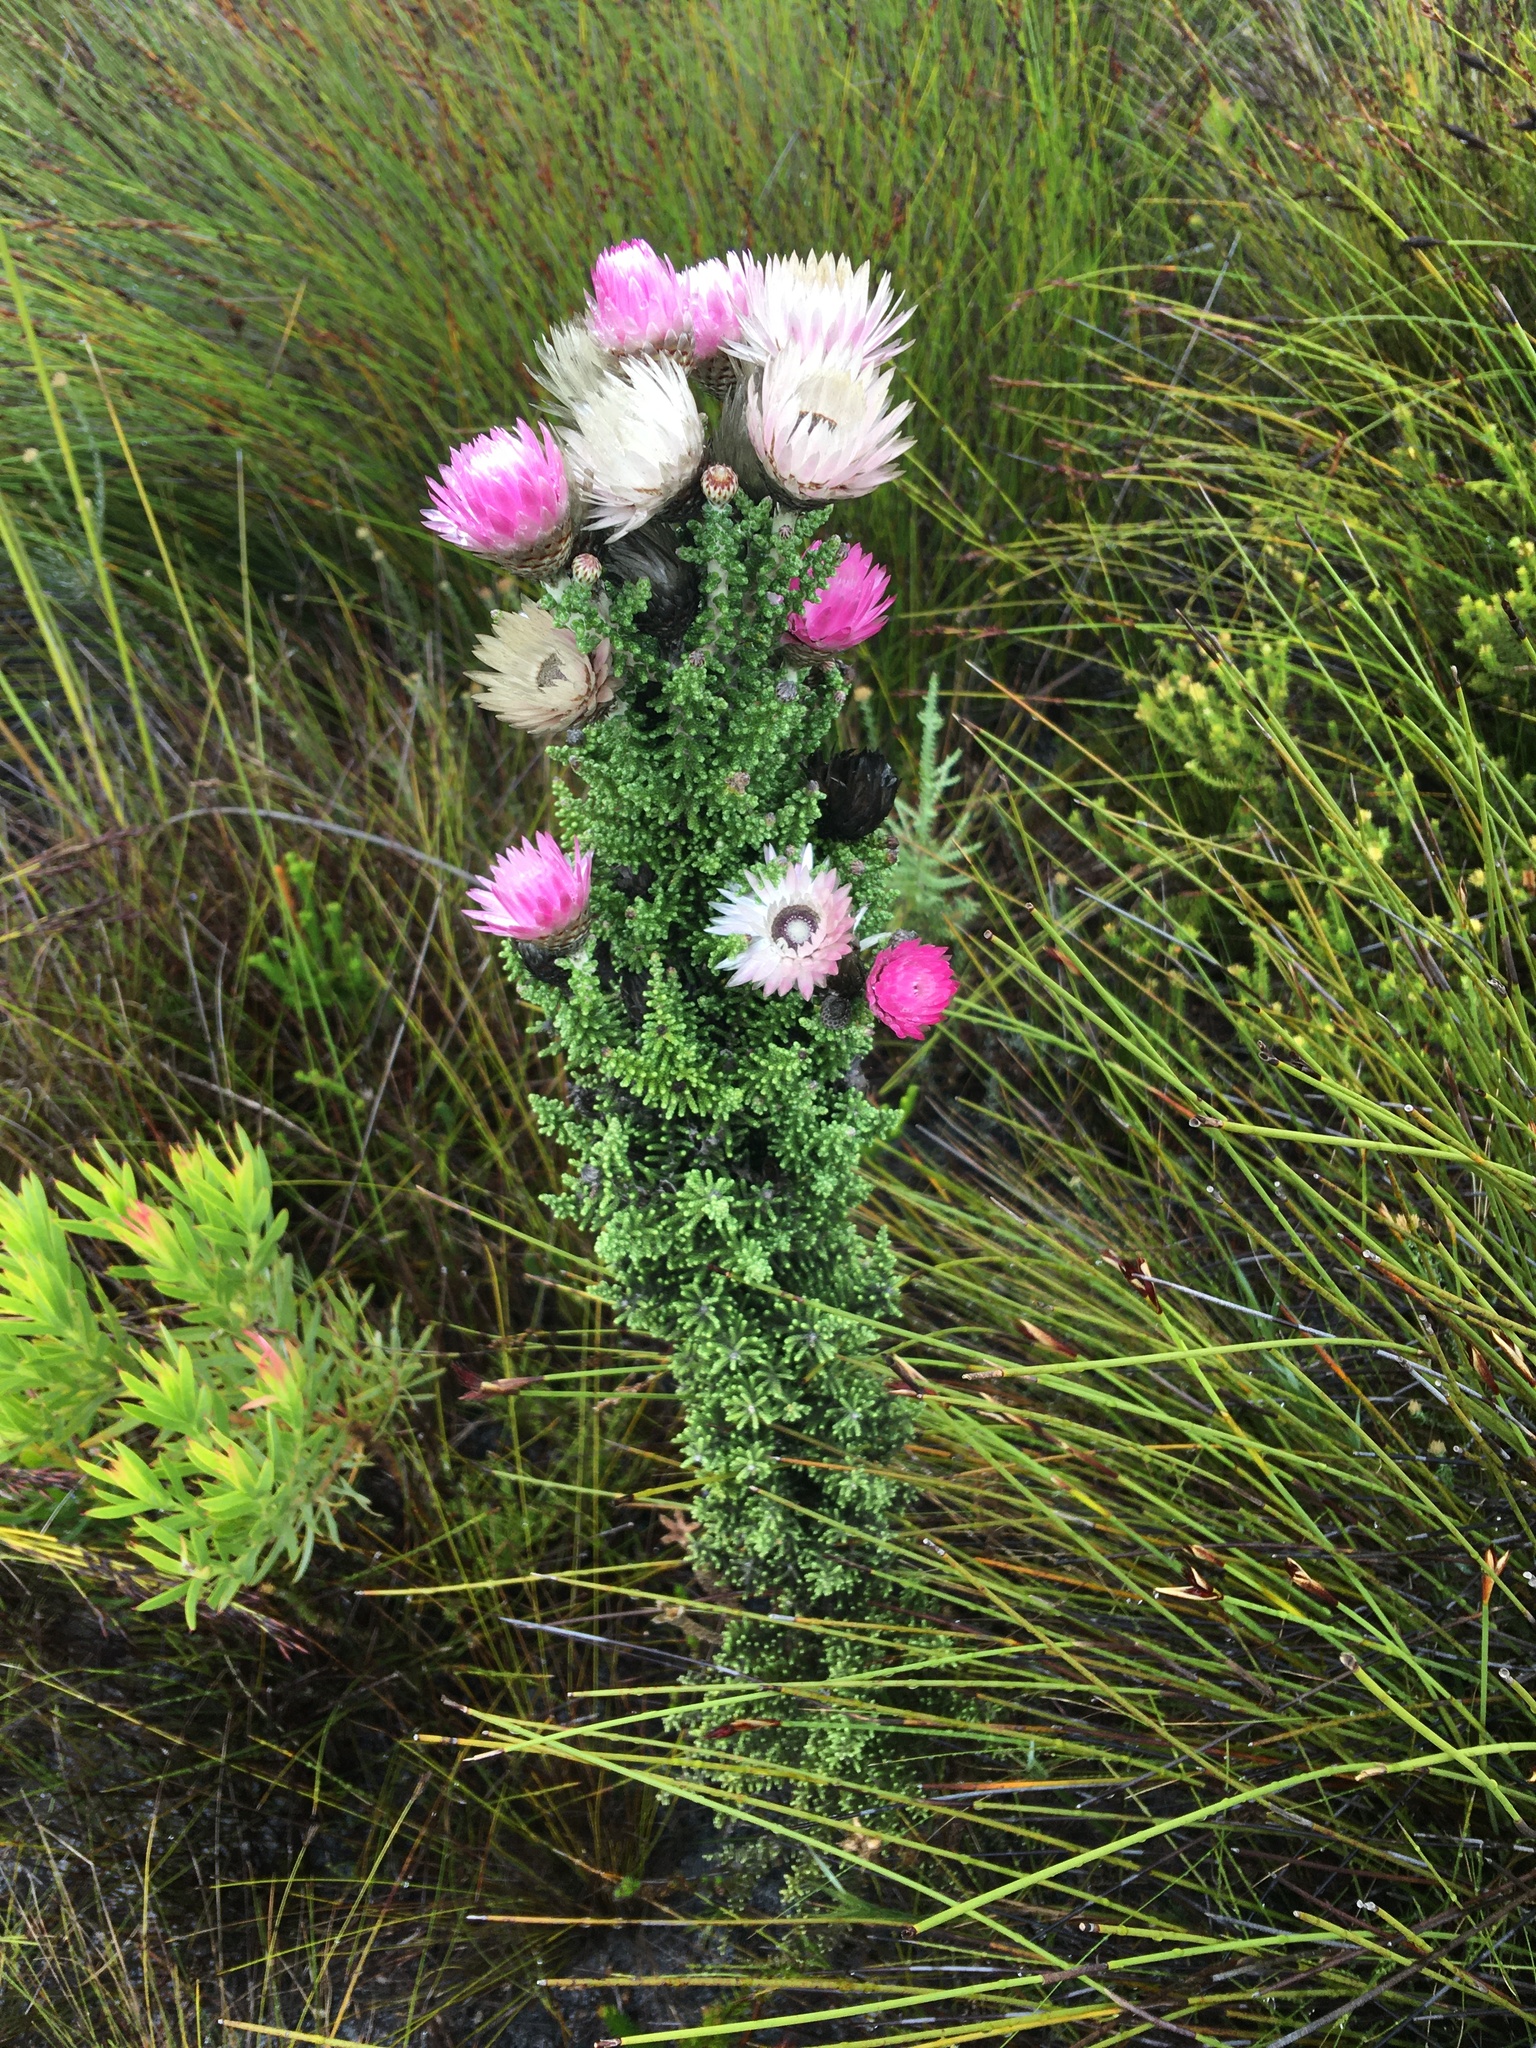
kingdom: Plantae
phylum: Tracheophyta
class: Magnoliopsida
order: Asterales
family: Asteraceae
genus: Phaenocoma
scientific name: Phaenocoma prolifera
